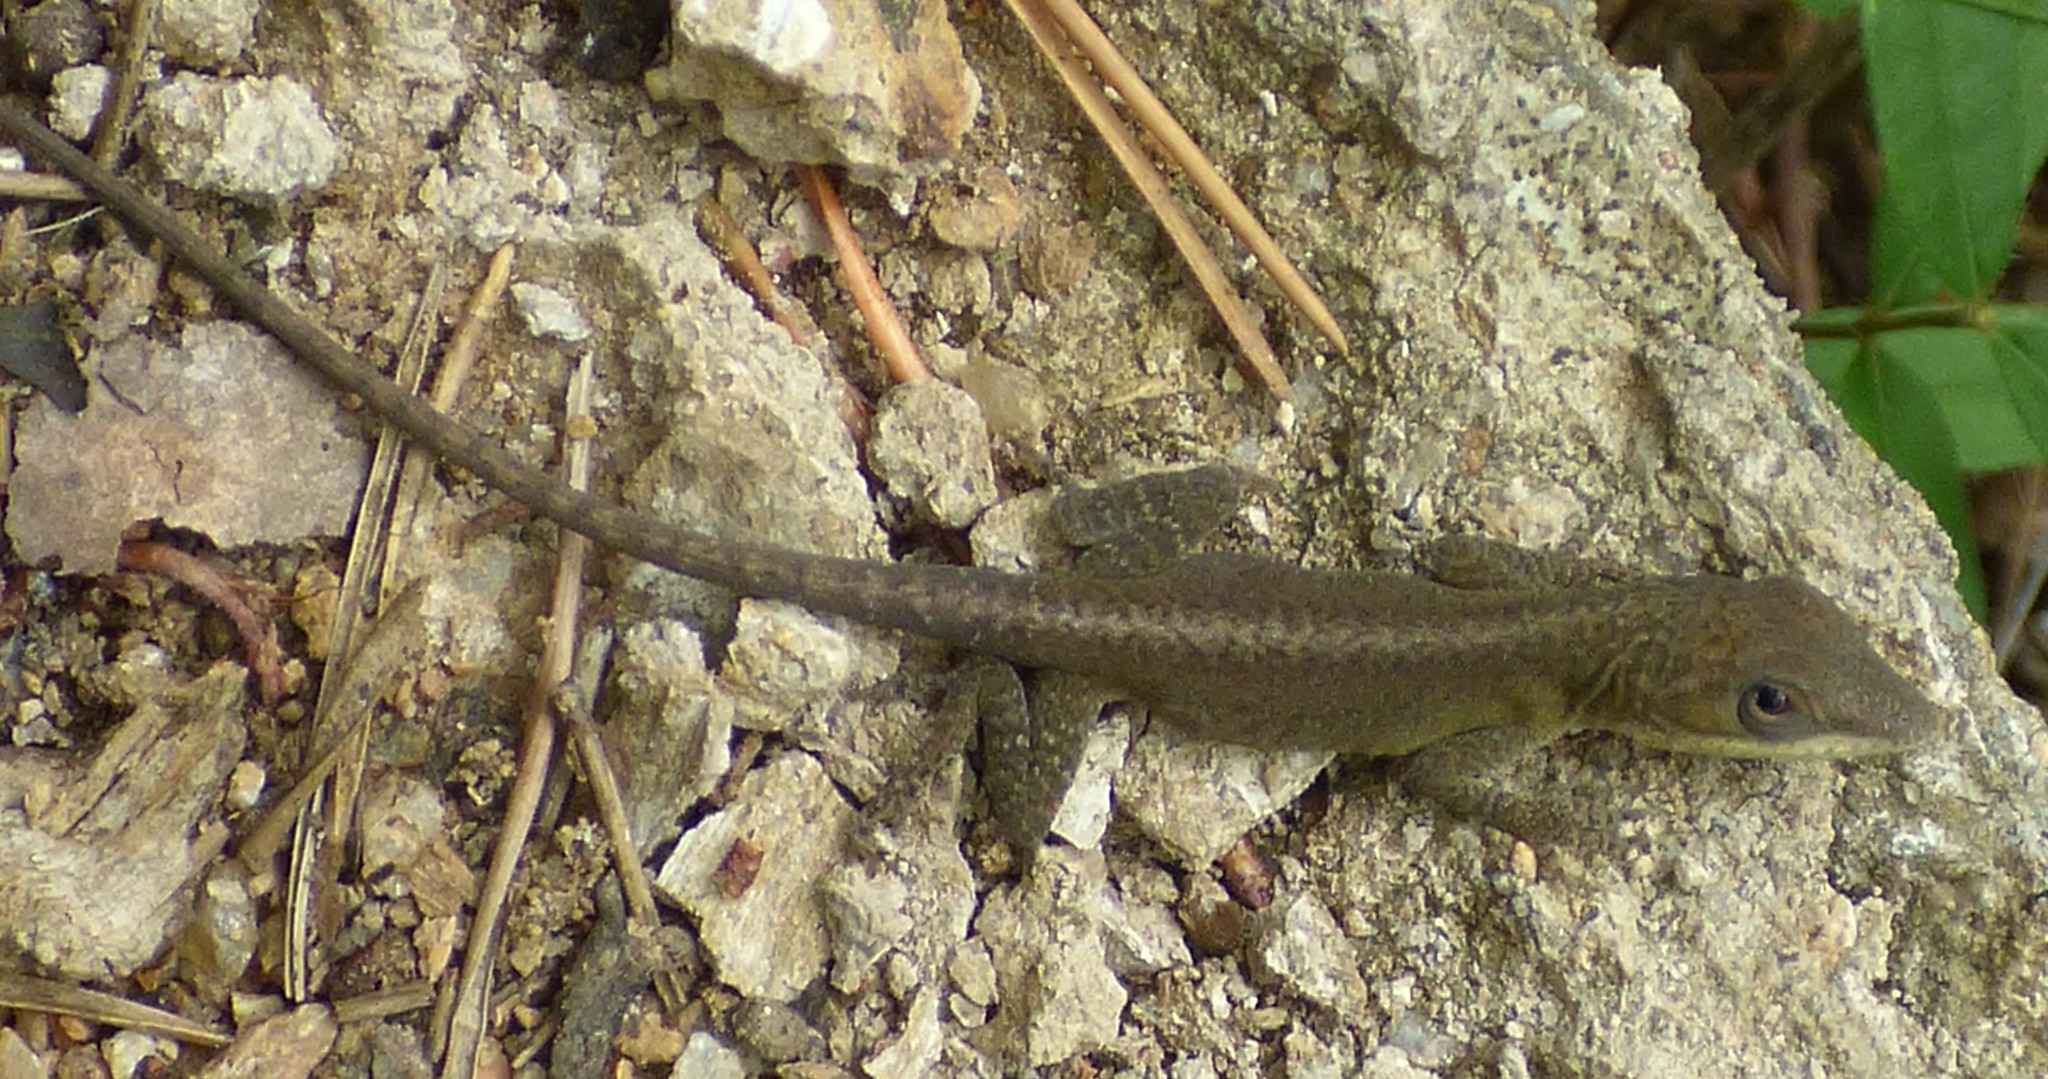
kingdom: Animalia
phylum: Chordata
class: Squamata
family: Dactyloidae
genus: Anolis
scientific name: Anolis carolinensis
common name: Green anole
